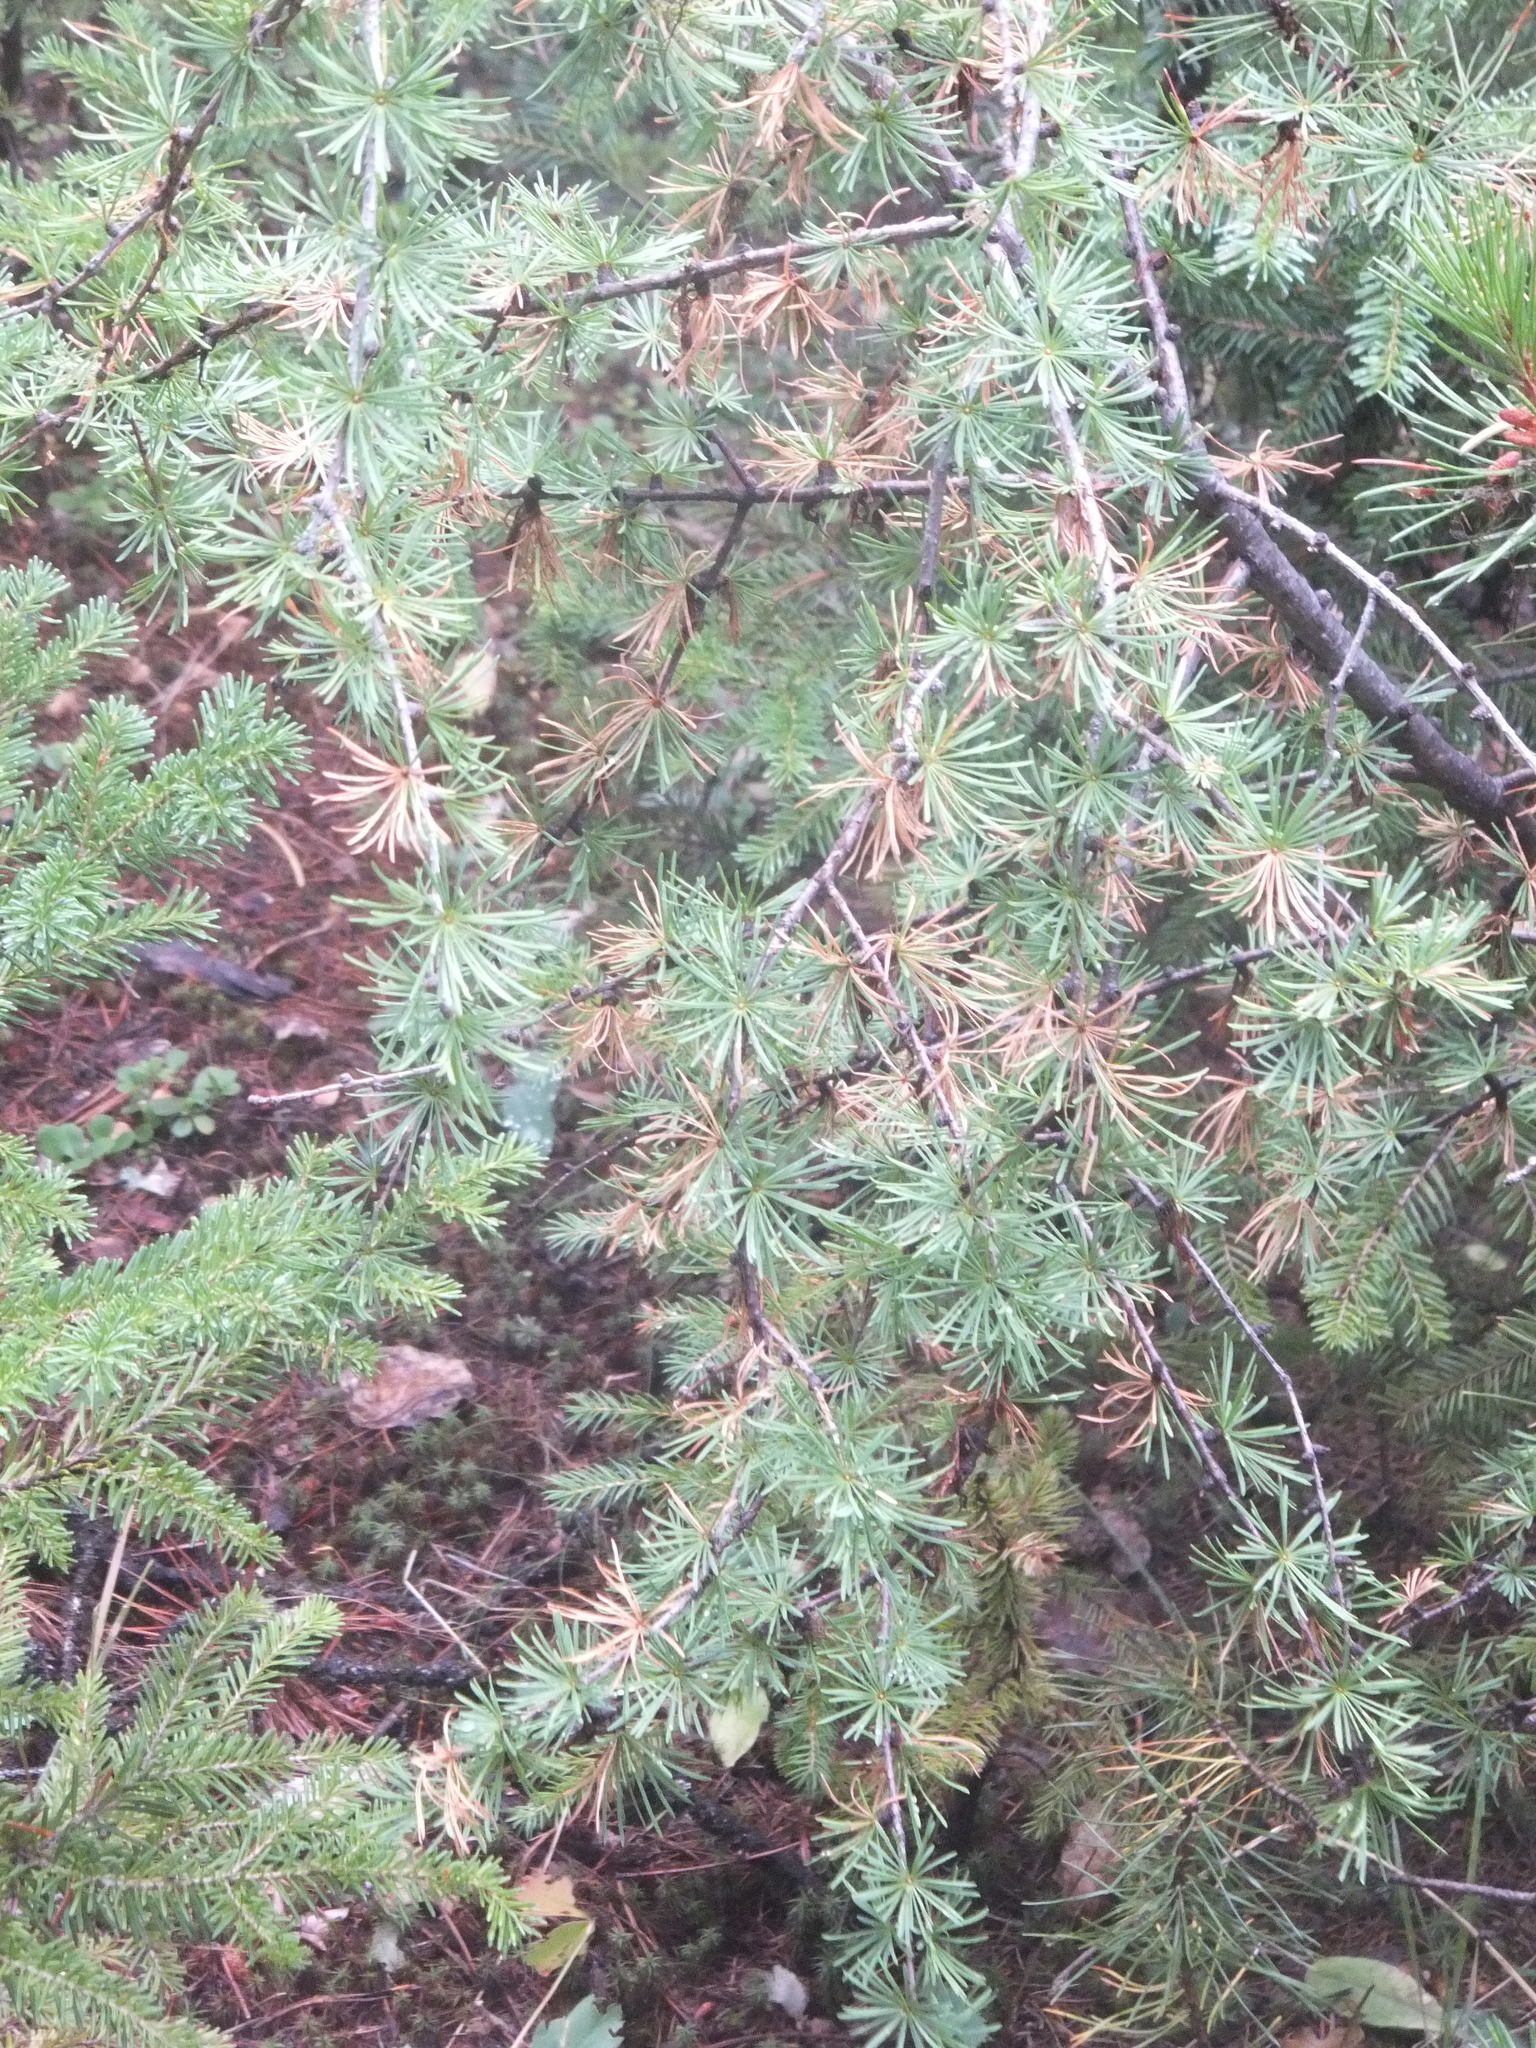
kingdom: Plantae
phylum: Tracheophyta
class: Pinopsida
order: Pinales
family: Pinaceae
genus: Larix
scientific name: Larix occidentalis
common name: Western larch
